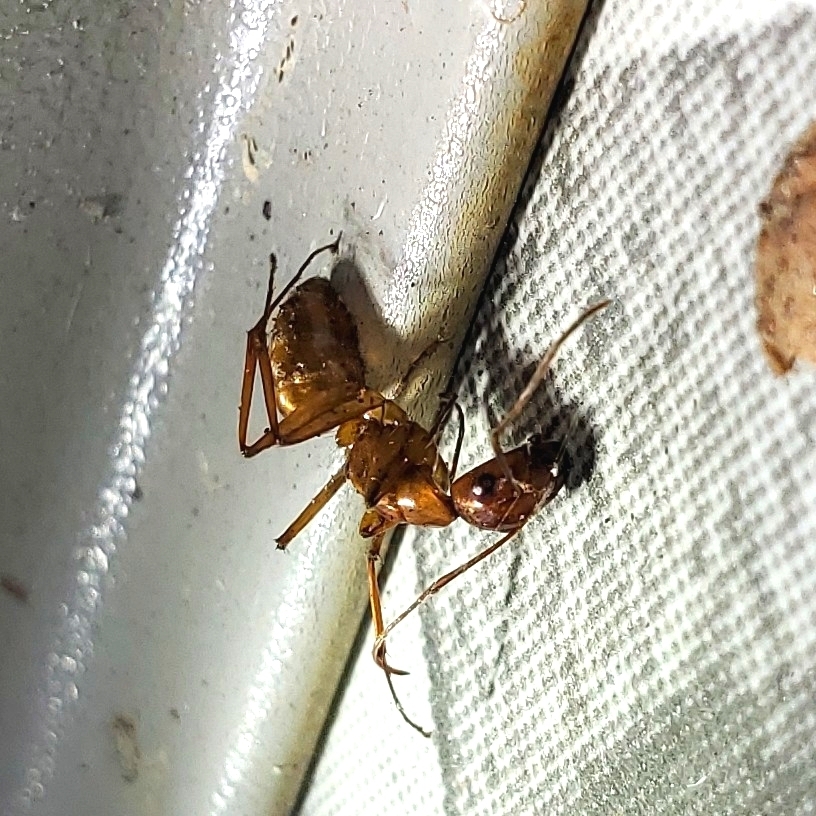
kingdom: Animalia
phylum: Arthropoda
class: Insecta
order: Hymenoptera
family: Formicidae
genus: Camponotus
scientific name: Camponotus castaneus
